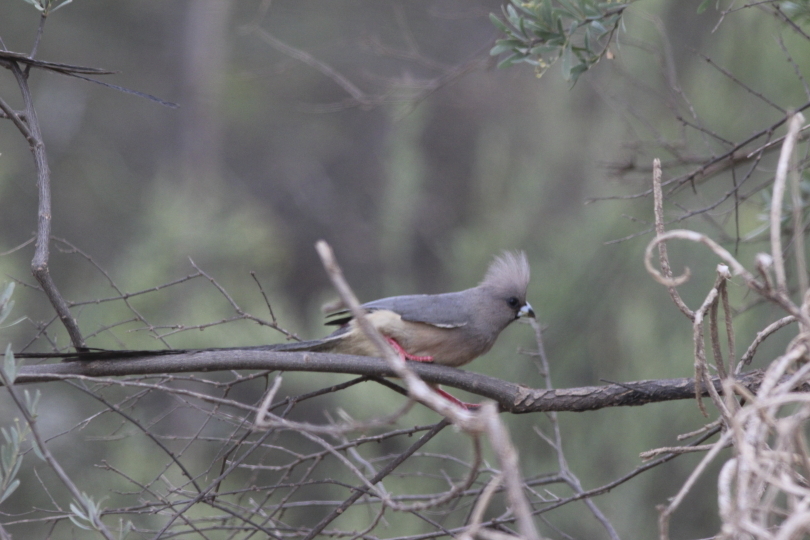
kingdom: Animalia
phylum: Chordata
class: Aves
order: Coliiformes
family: Coliidae
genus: Colius
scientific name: Colius colius
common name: White-backed mousebird
